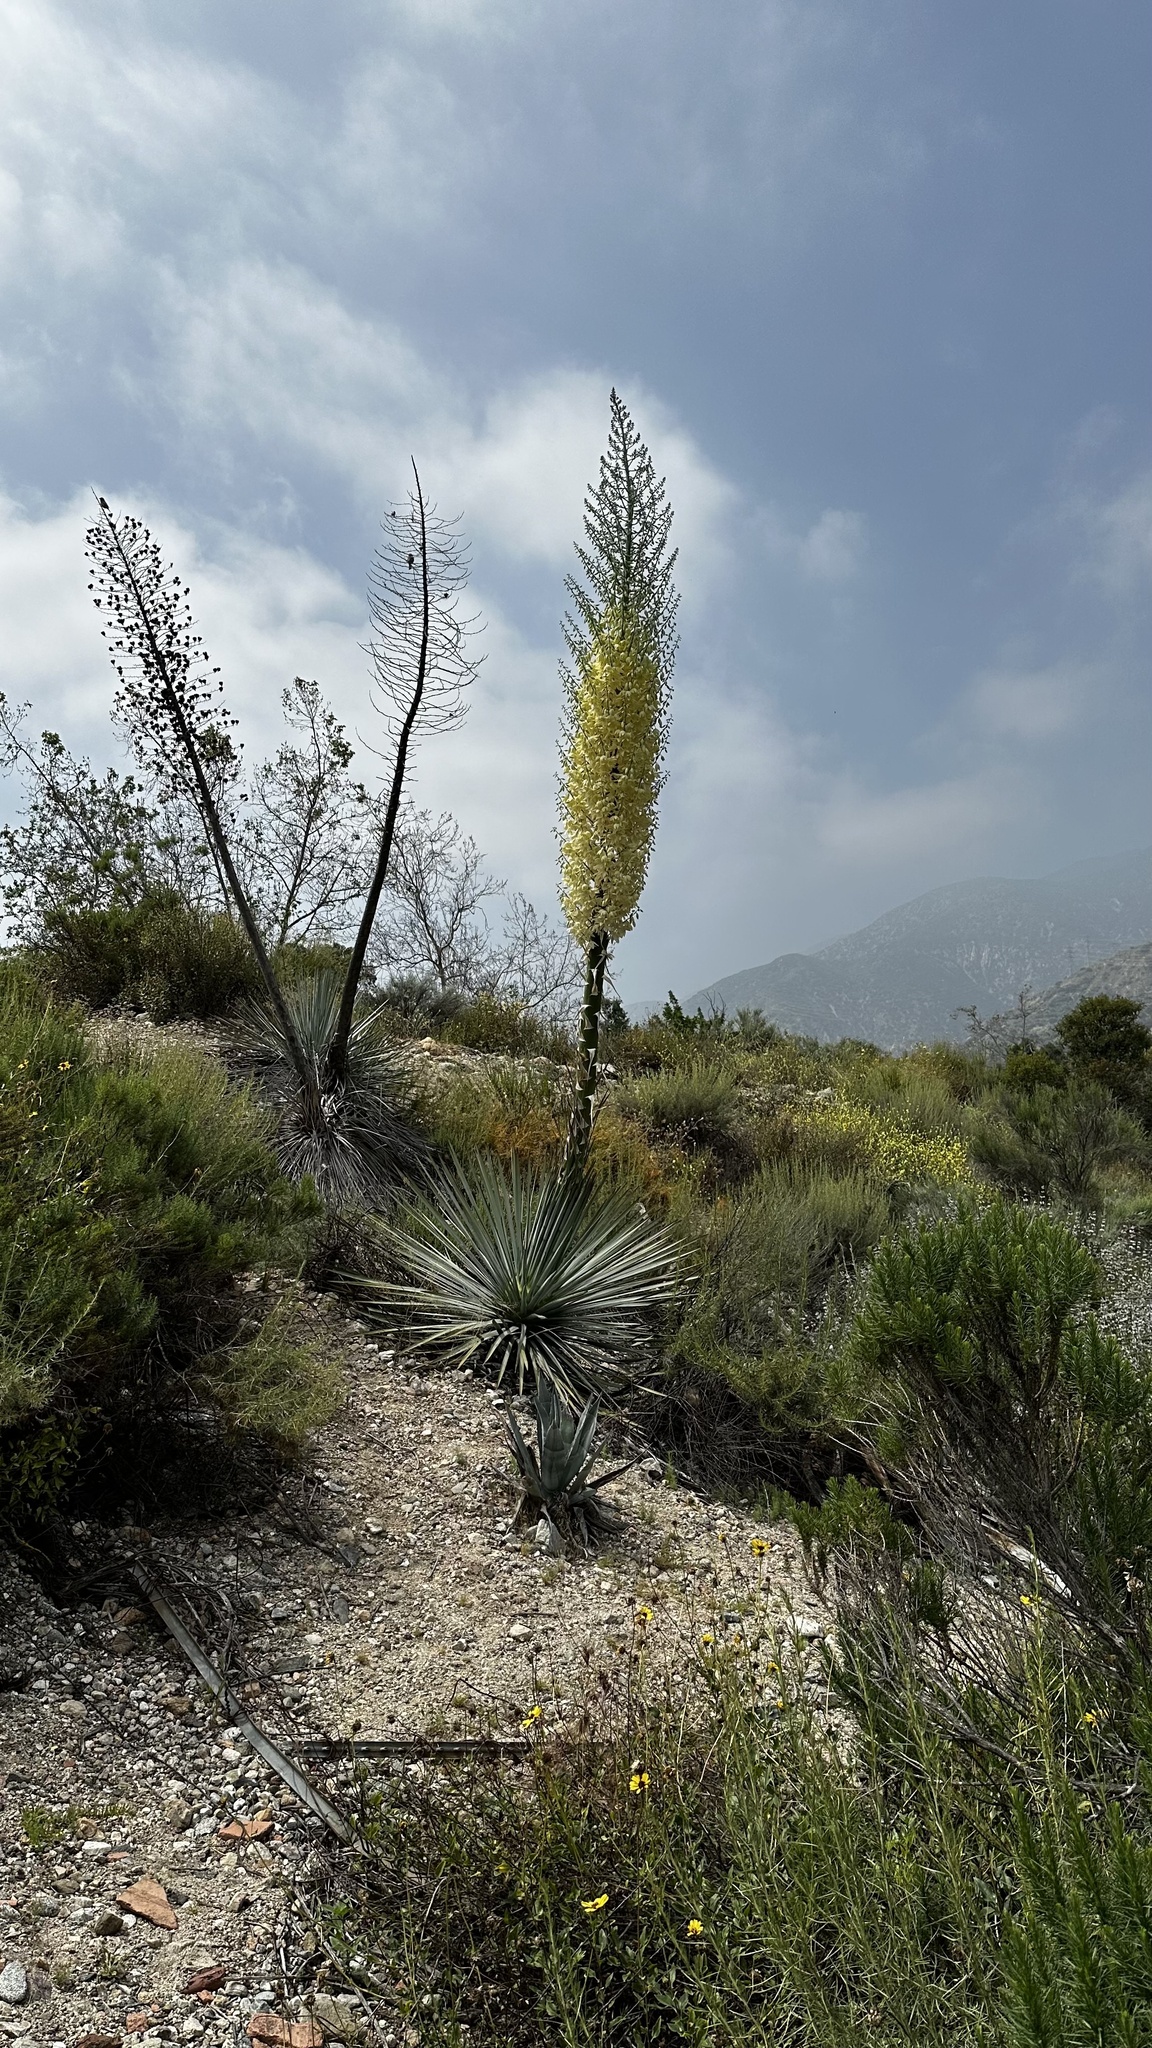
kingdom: Plantae
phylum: Tracheophyta
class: Liliopsida
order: Asparagales
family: Asparagaceae
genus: Hesperoyucca
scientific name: Hesperoyucca whipplei
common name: Our lord's-candle
